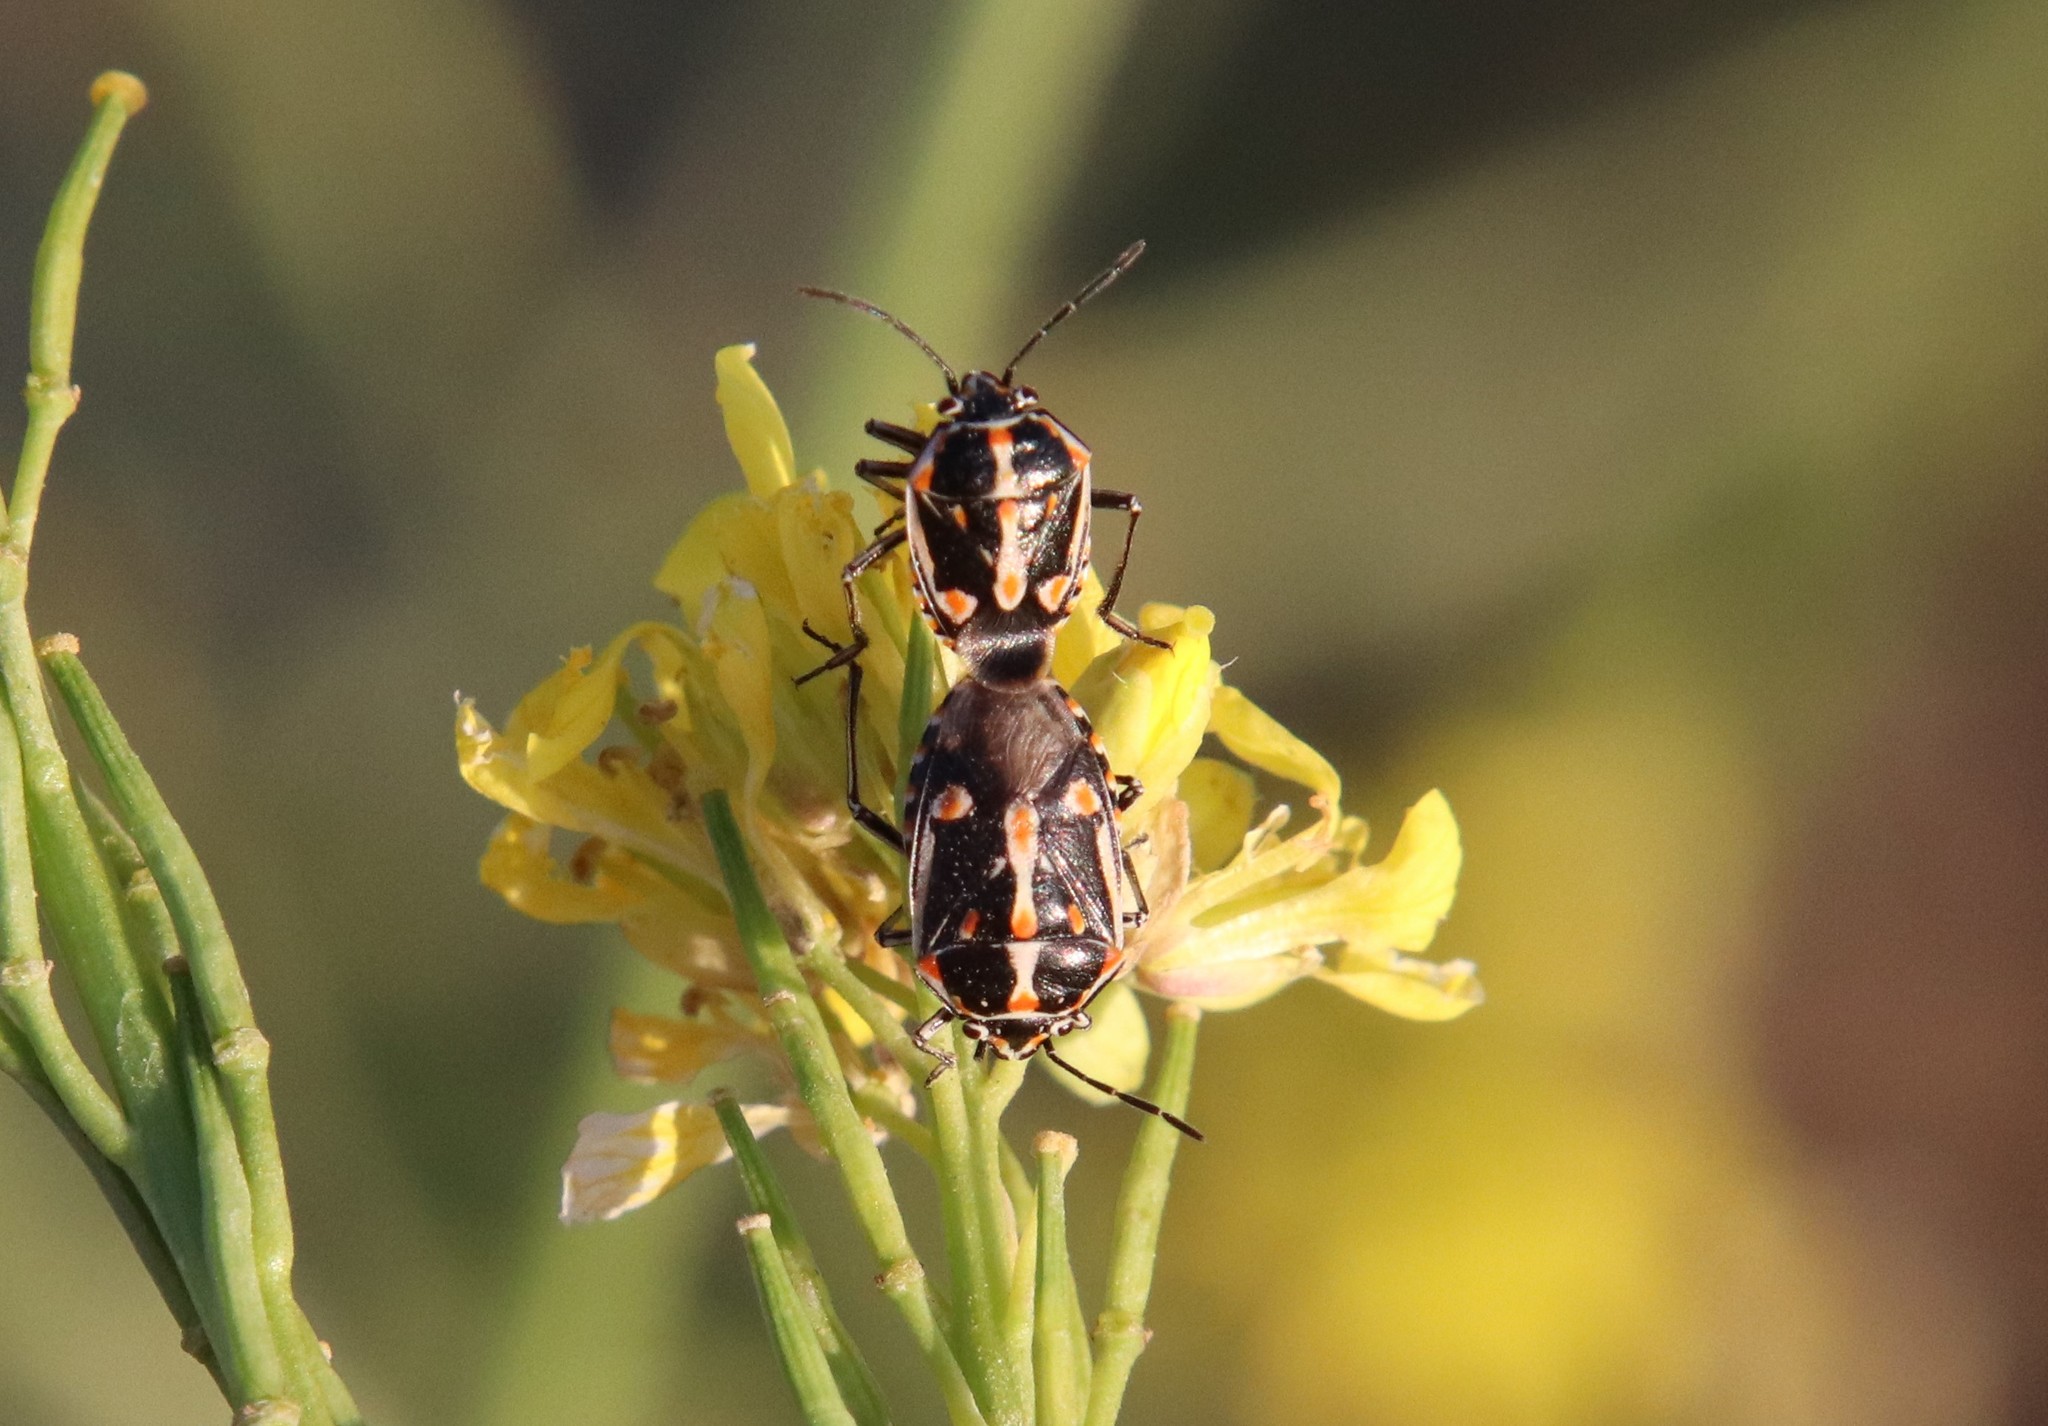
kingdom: Animalia
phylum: Arthropoda
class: Insecta
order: Hemiptera
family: Pentatomidae
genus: Bagrada
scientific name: Bagrada hilaris
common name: Bagrada bug
